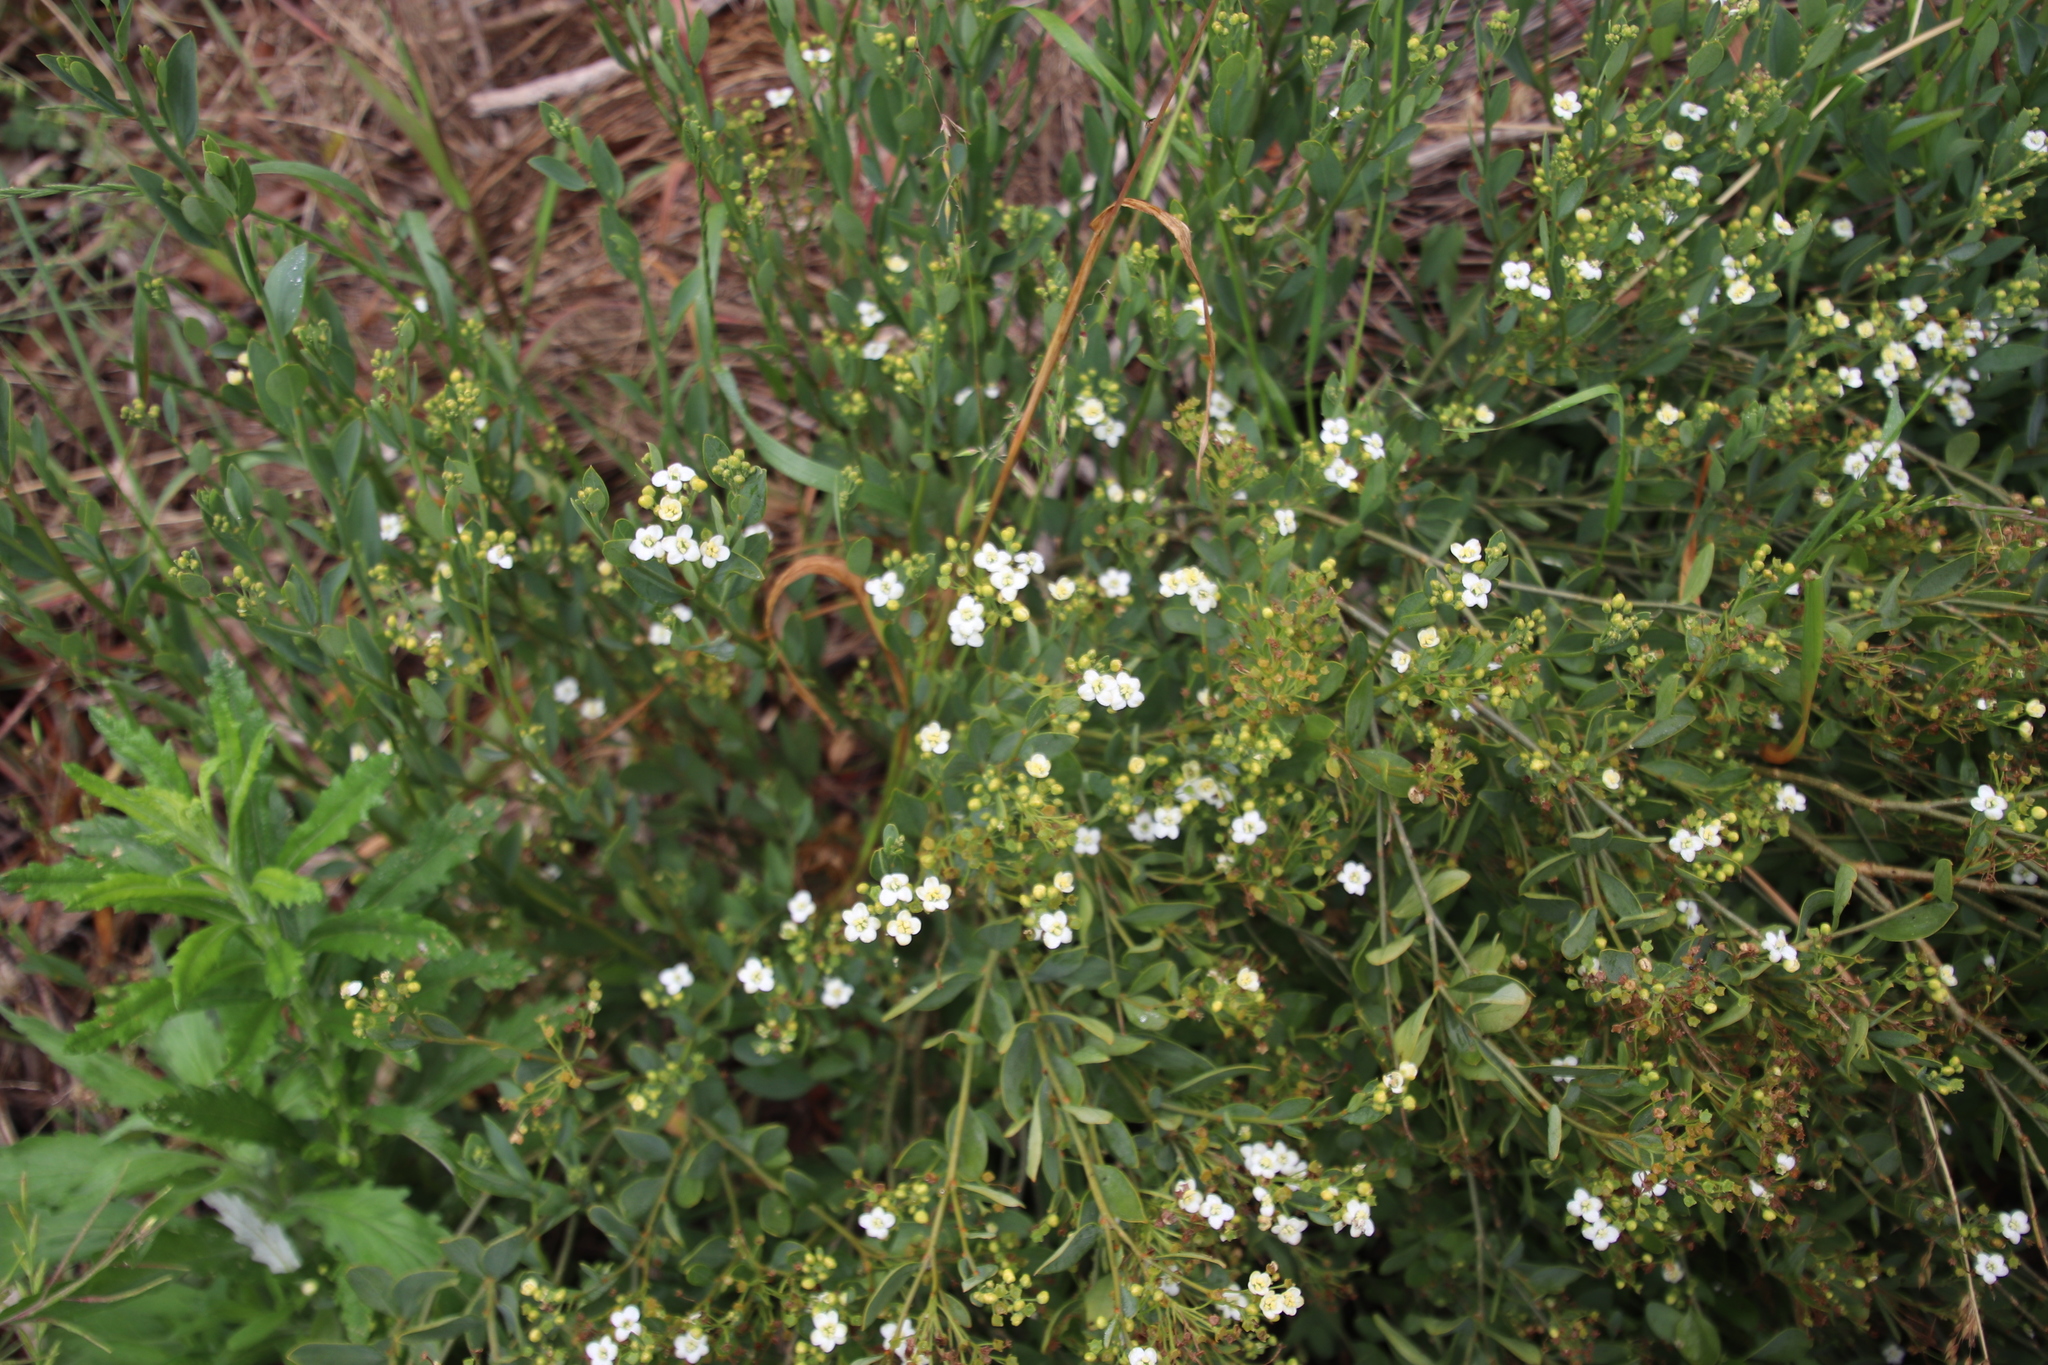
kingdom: Plantae
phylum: Tracheophyta
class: Magnoliopsida
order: Solanales
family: Montiniaceae
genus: Montinia
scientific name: Montinia caryophyllacea
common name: Wild clove-bush
